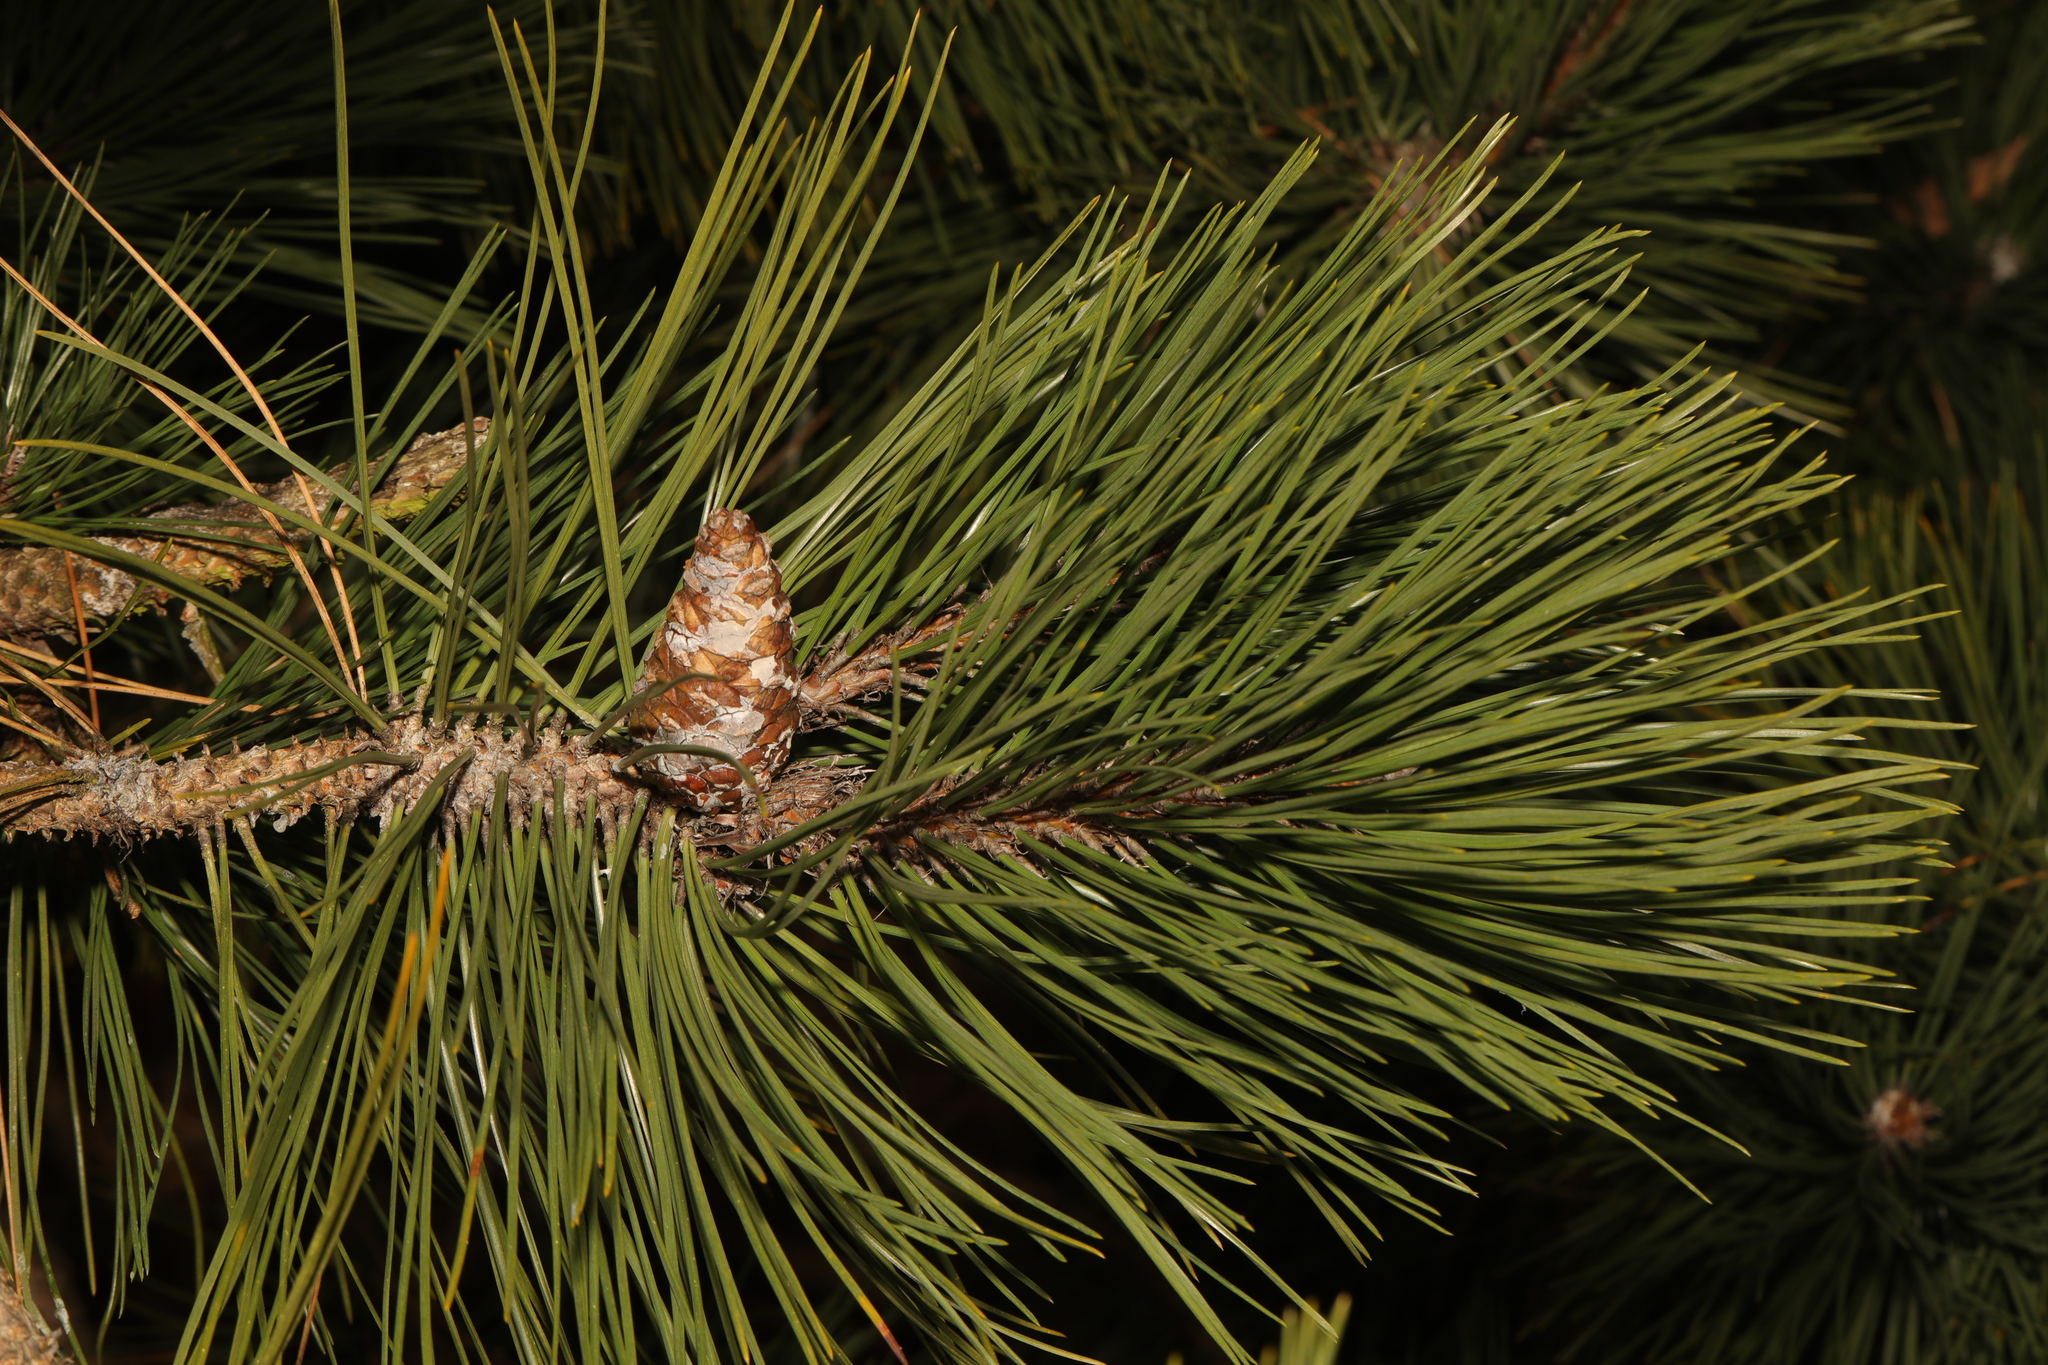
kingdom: Plantae
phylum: Tracheophyta
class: Pinopsida
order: Pinales
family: Pinaceae
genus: Pinus
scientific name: Pinus nigra
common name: Austrian pine
